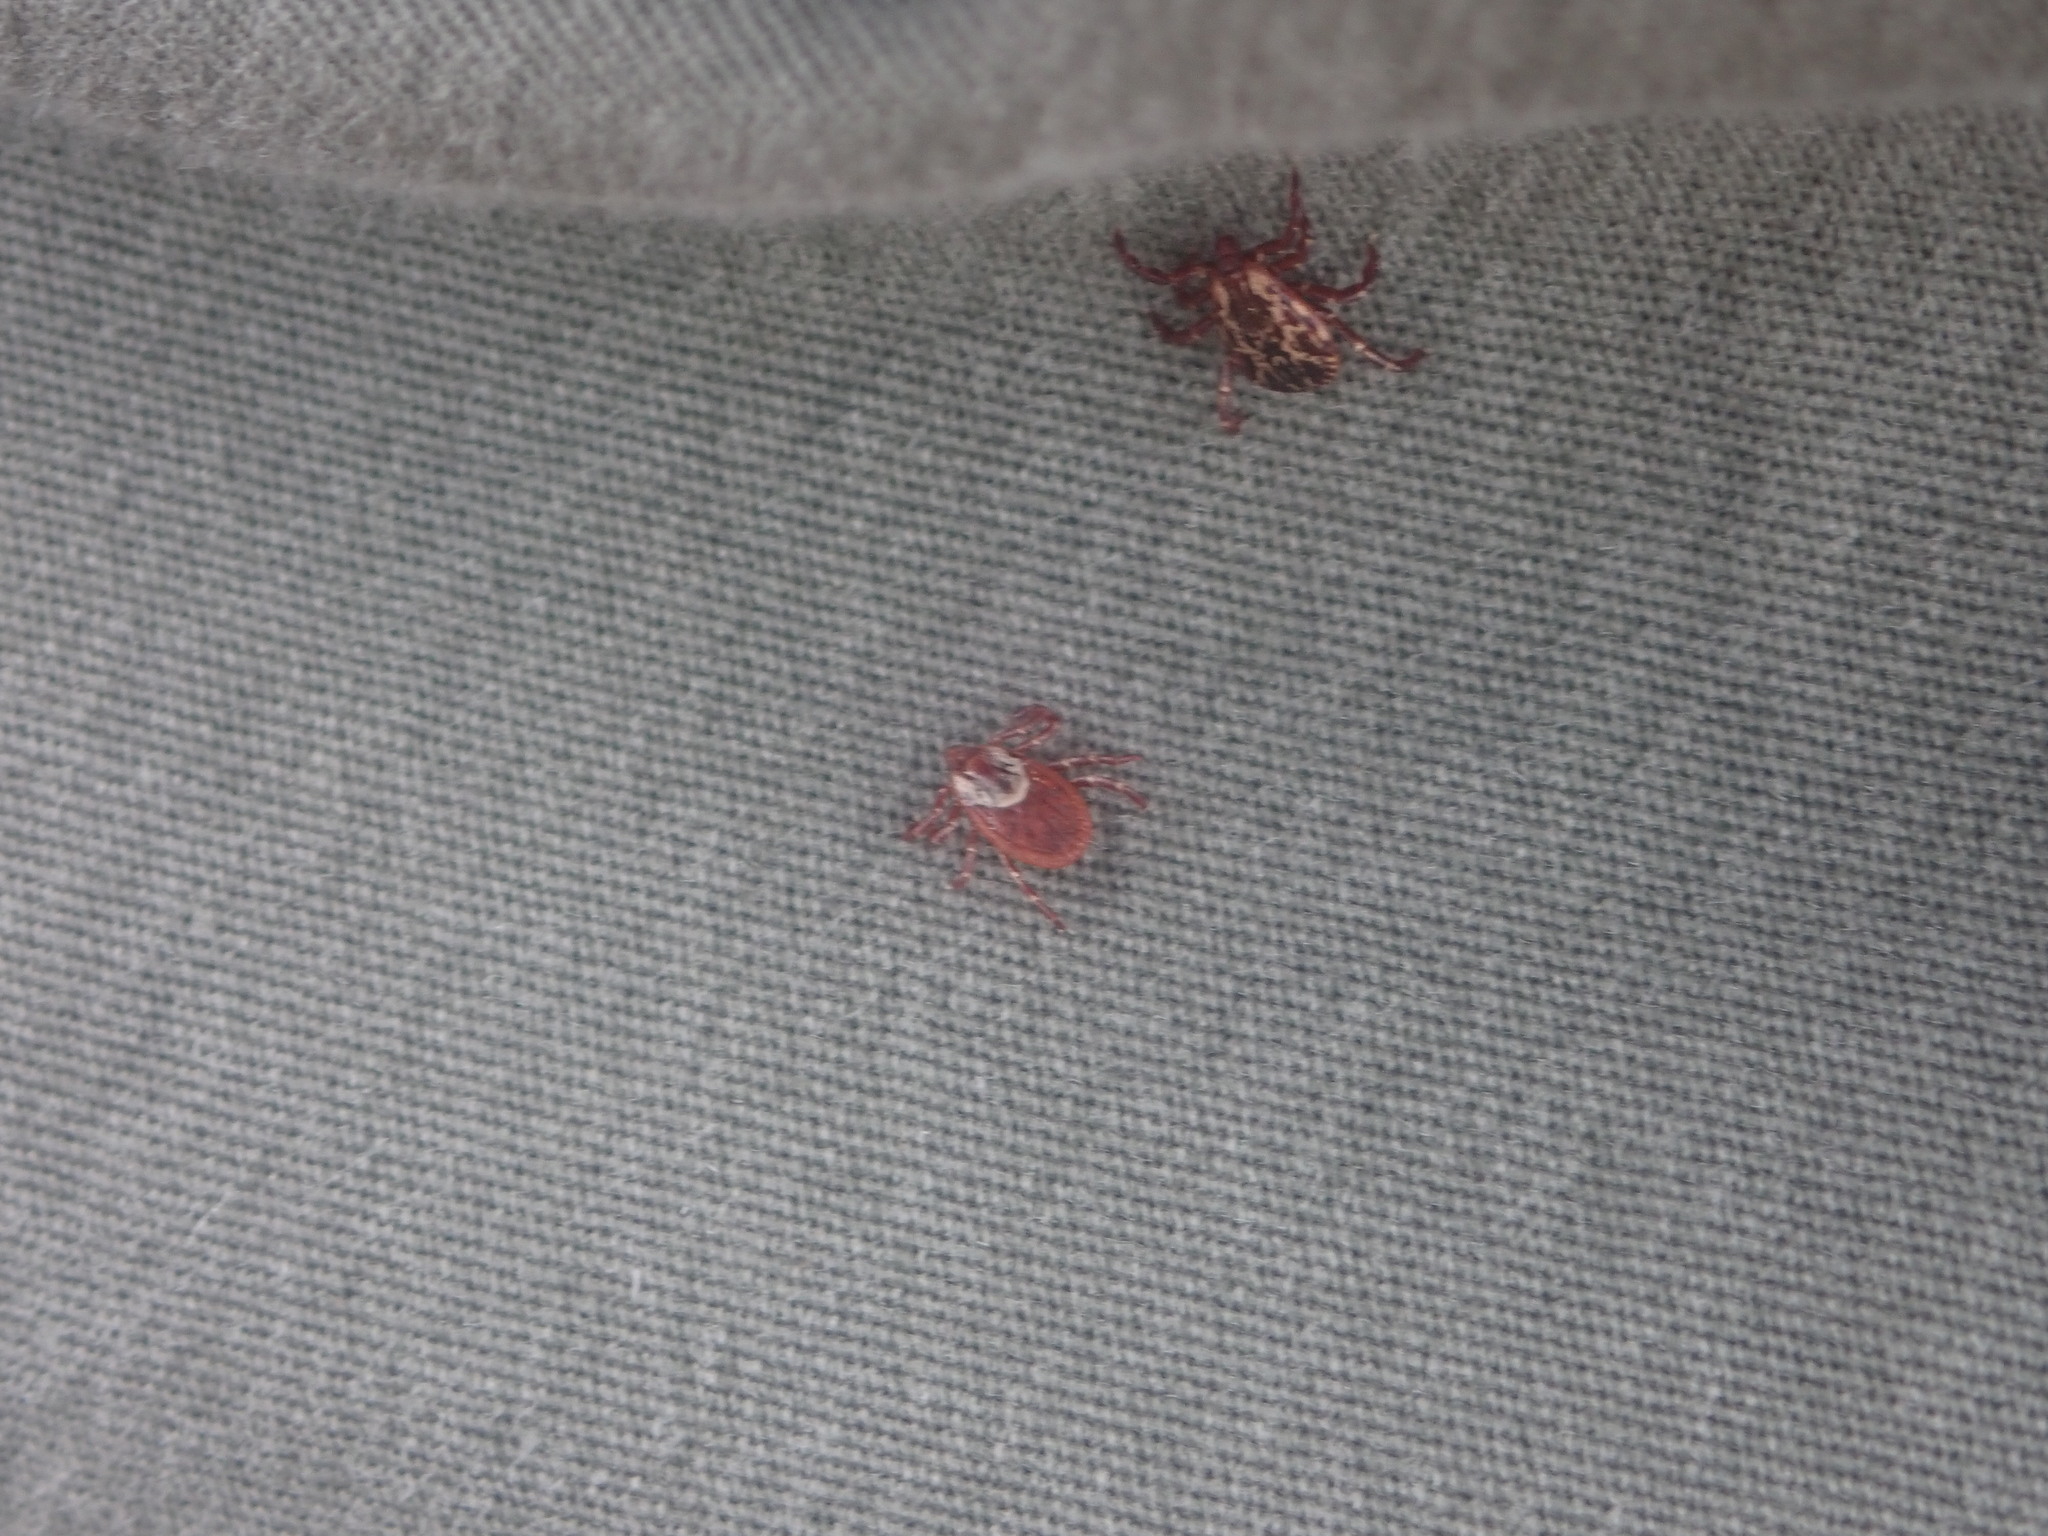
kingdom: Animalia
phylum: Arthropoda
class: Arachnida
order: Ixodida
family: Ixodidae
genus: Dermacentor
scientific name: Dermacentor variabilis
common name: American dog tick
